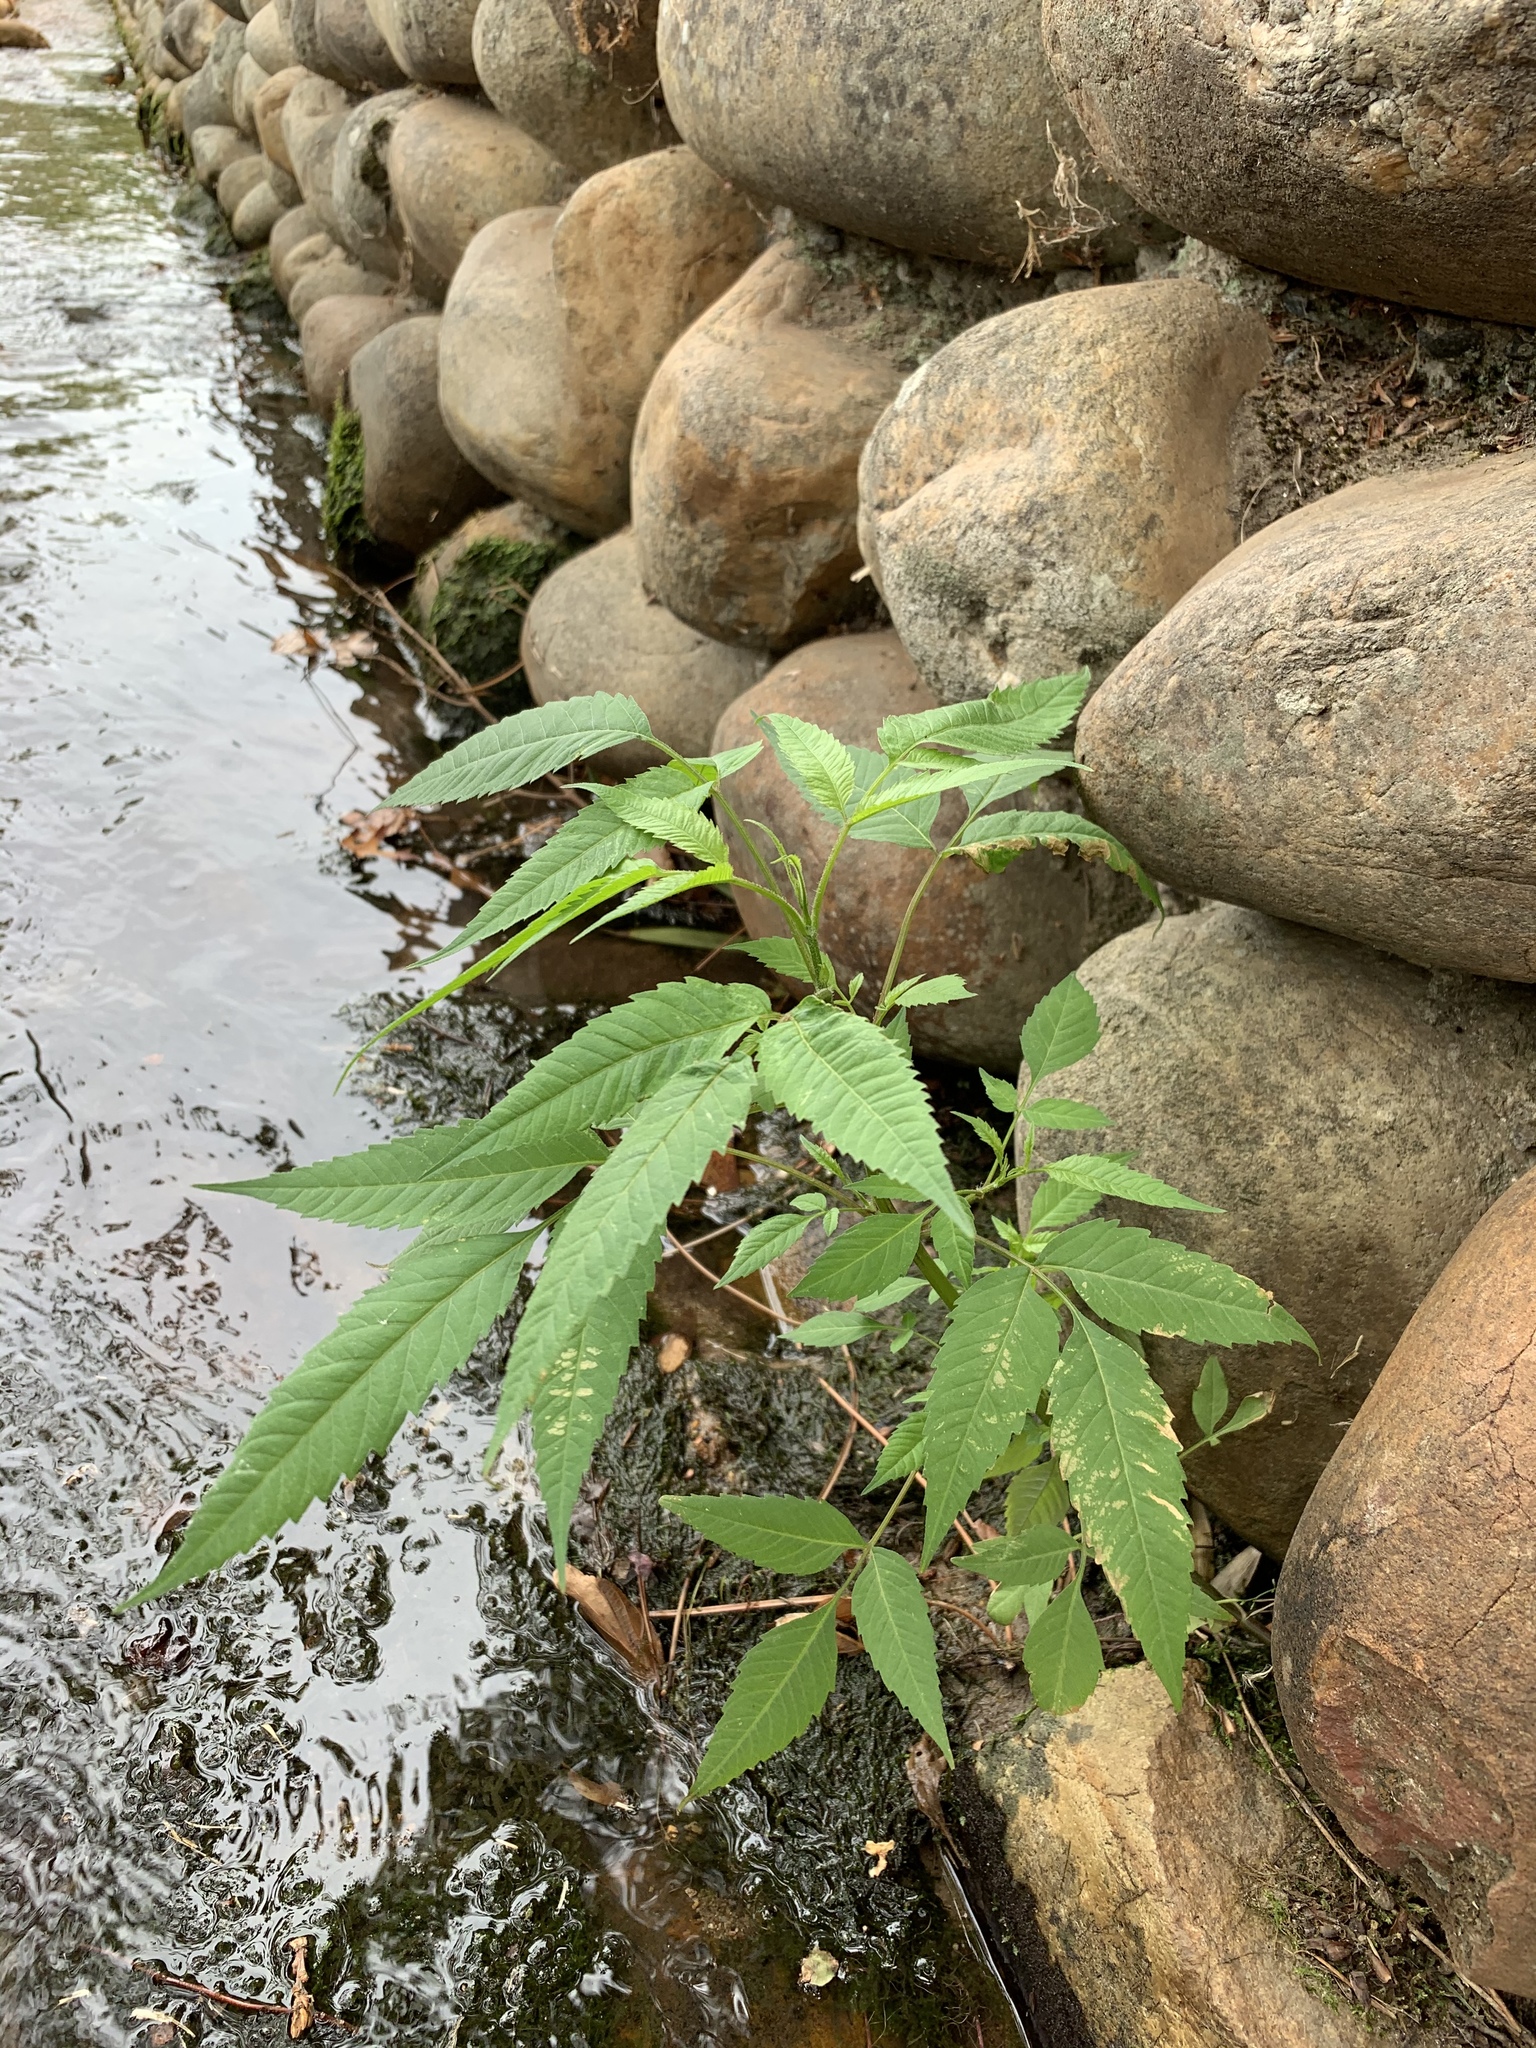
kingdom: Plantae
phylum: Tracheophyta
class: Magnoliopsida
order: Asterales
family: Asteraceae
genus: Bidens
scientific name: Bidens pilosa
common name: Black-jack
